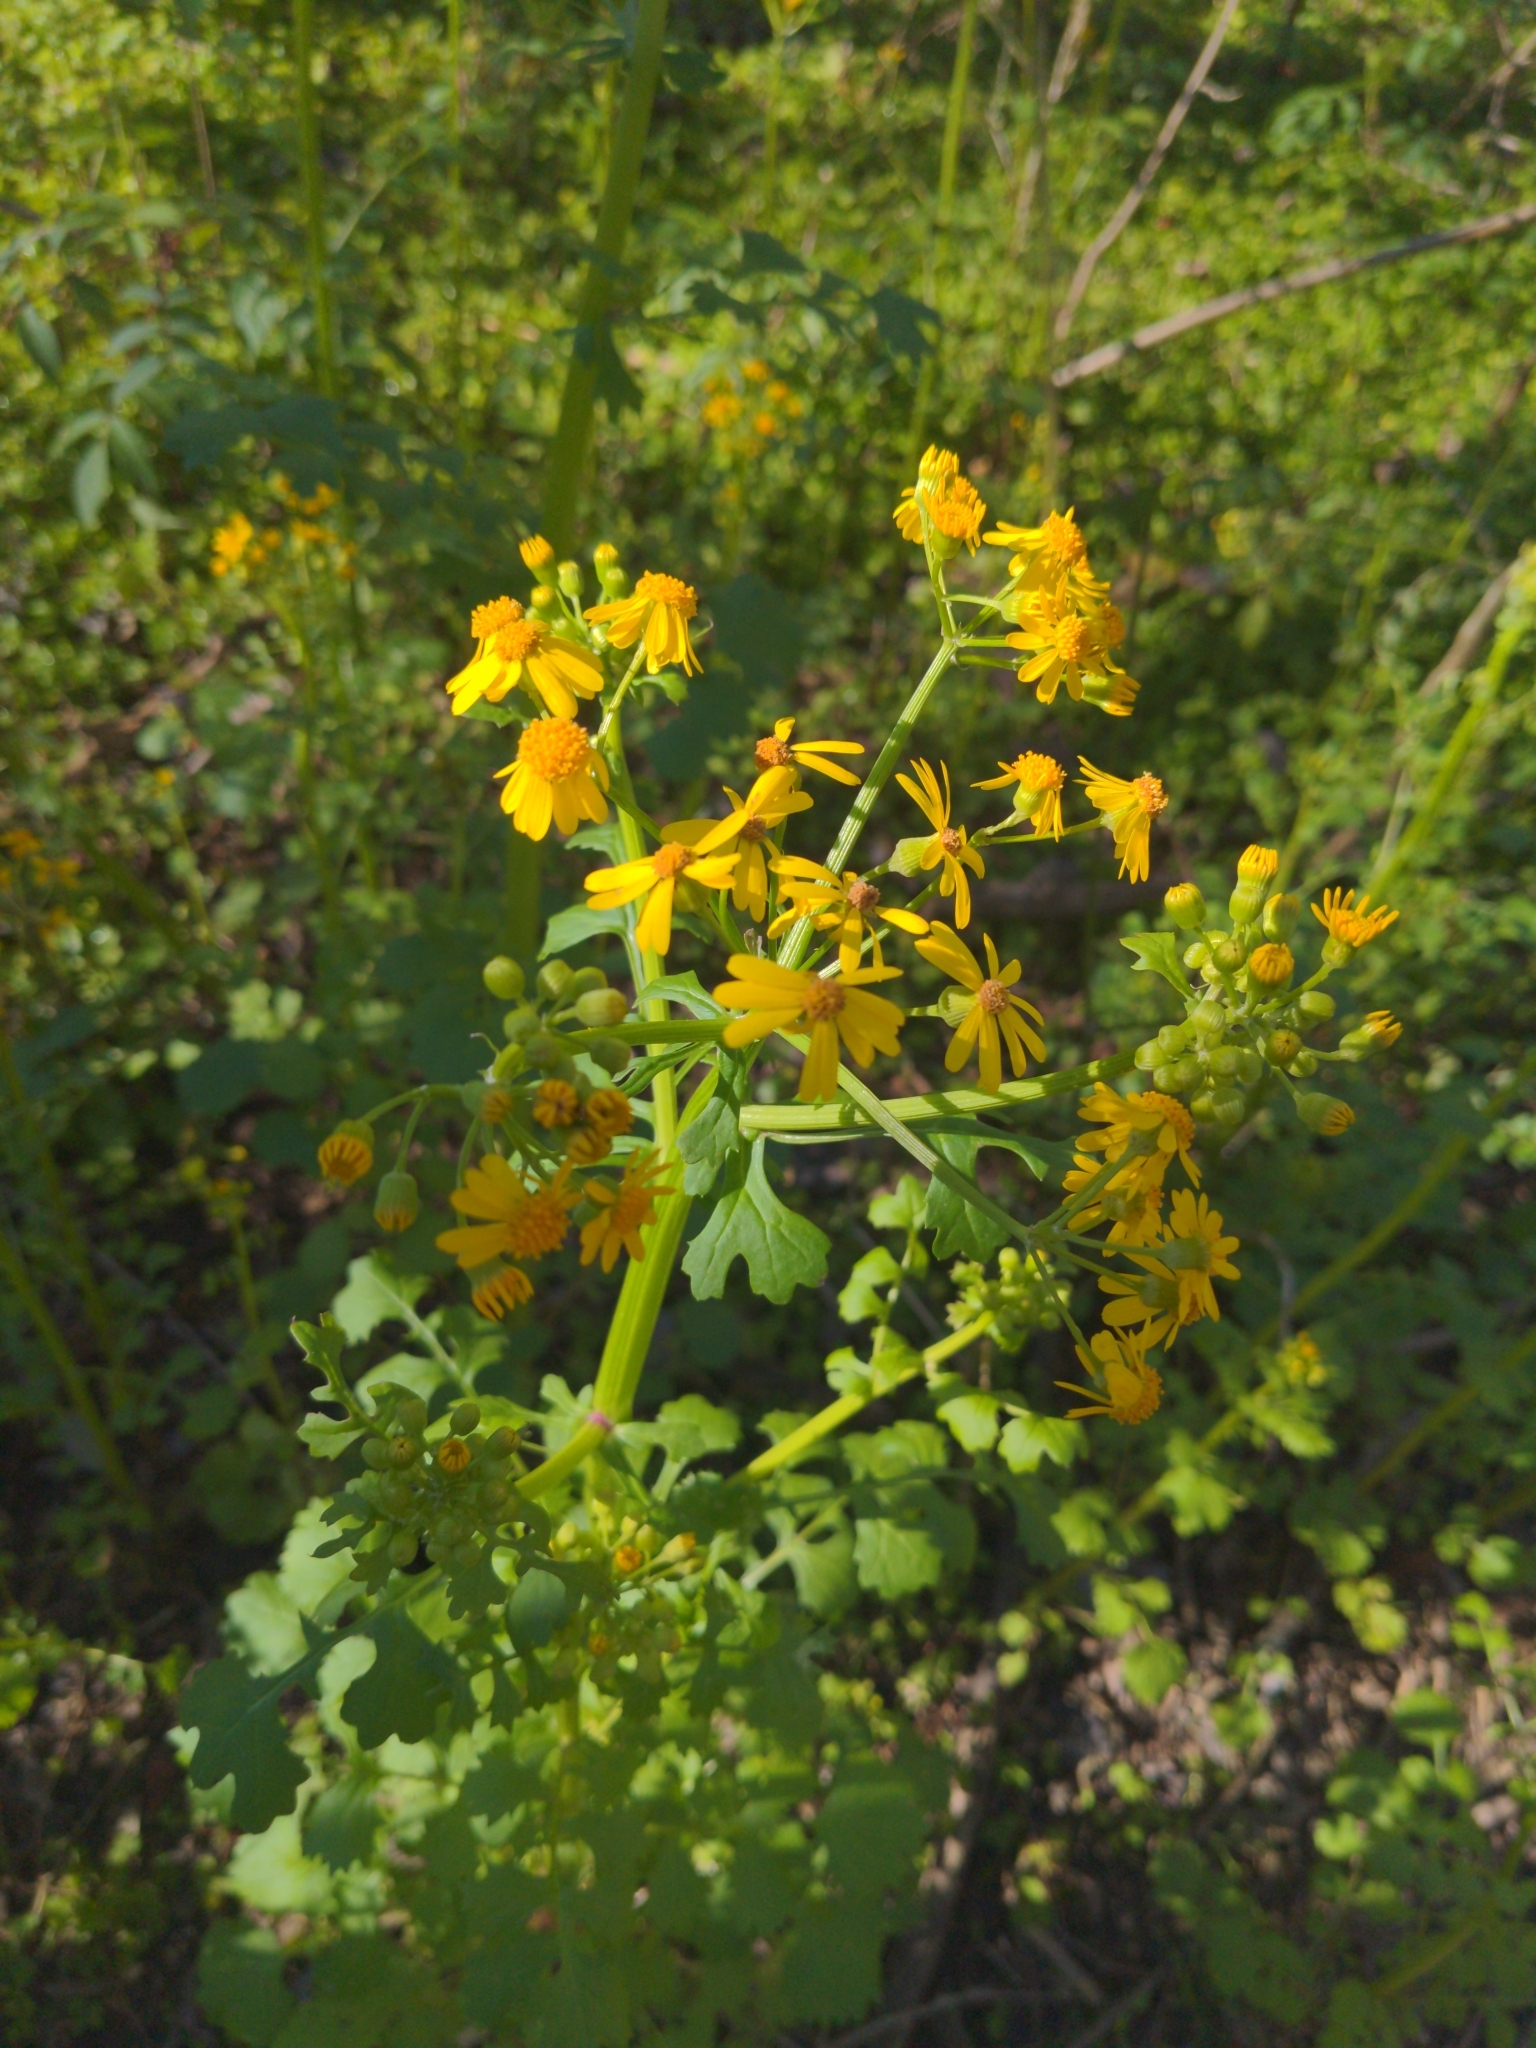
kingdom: Plantae
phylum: Tracheophyta
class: Magnoliopsida
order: Asterales
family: Asteraceae
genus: Packera
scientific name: Packera glabella
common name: Butterweed
